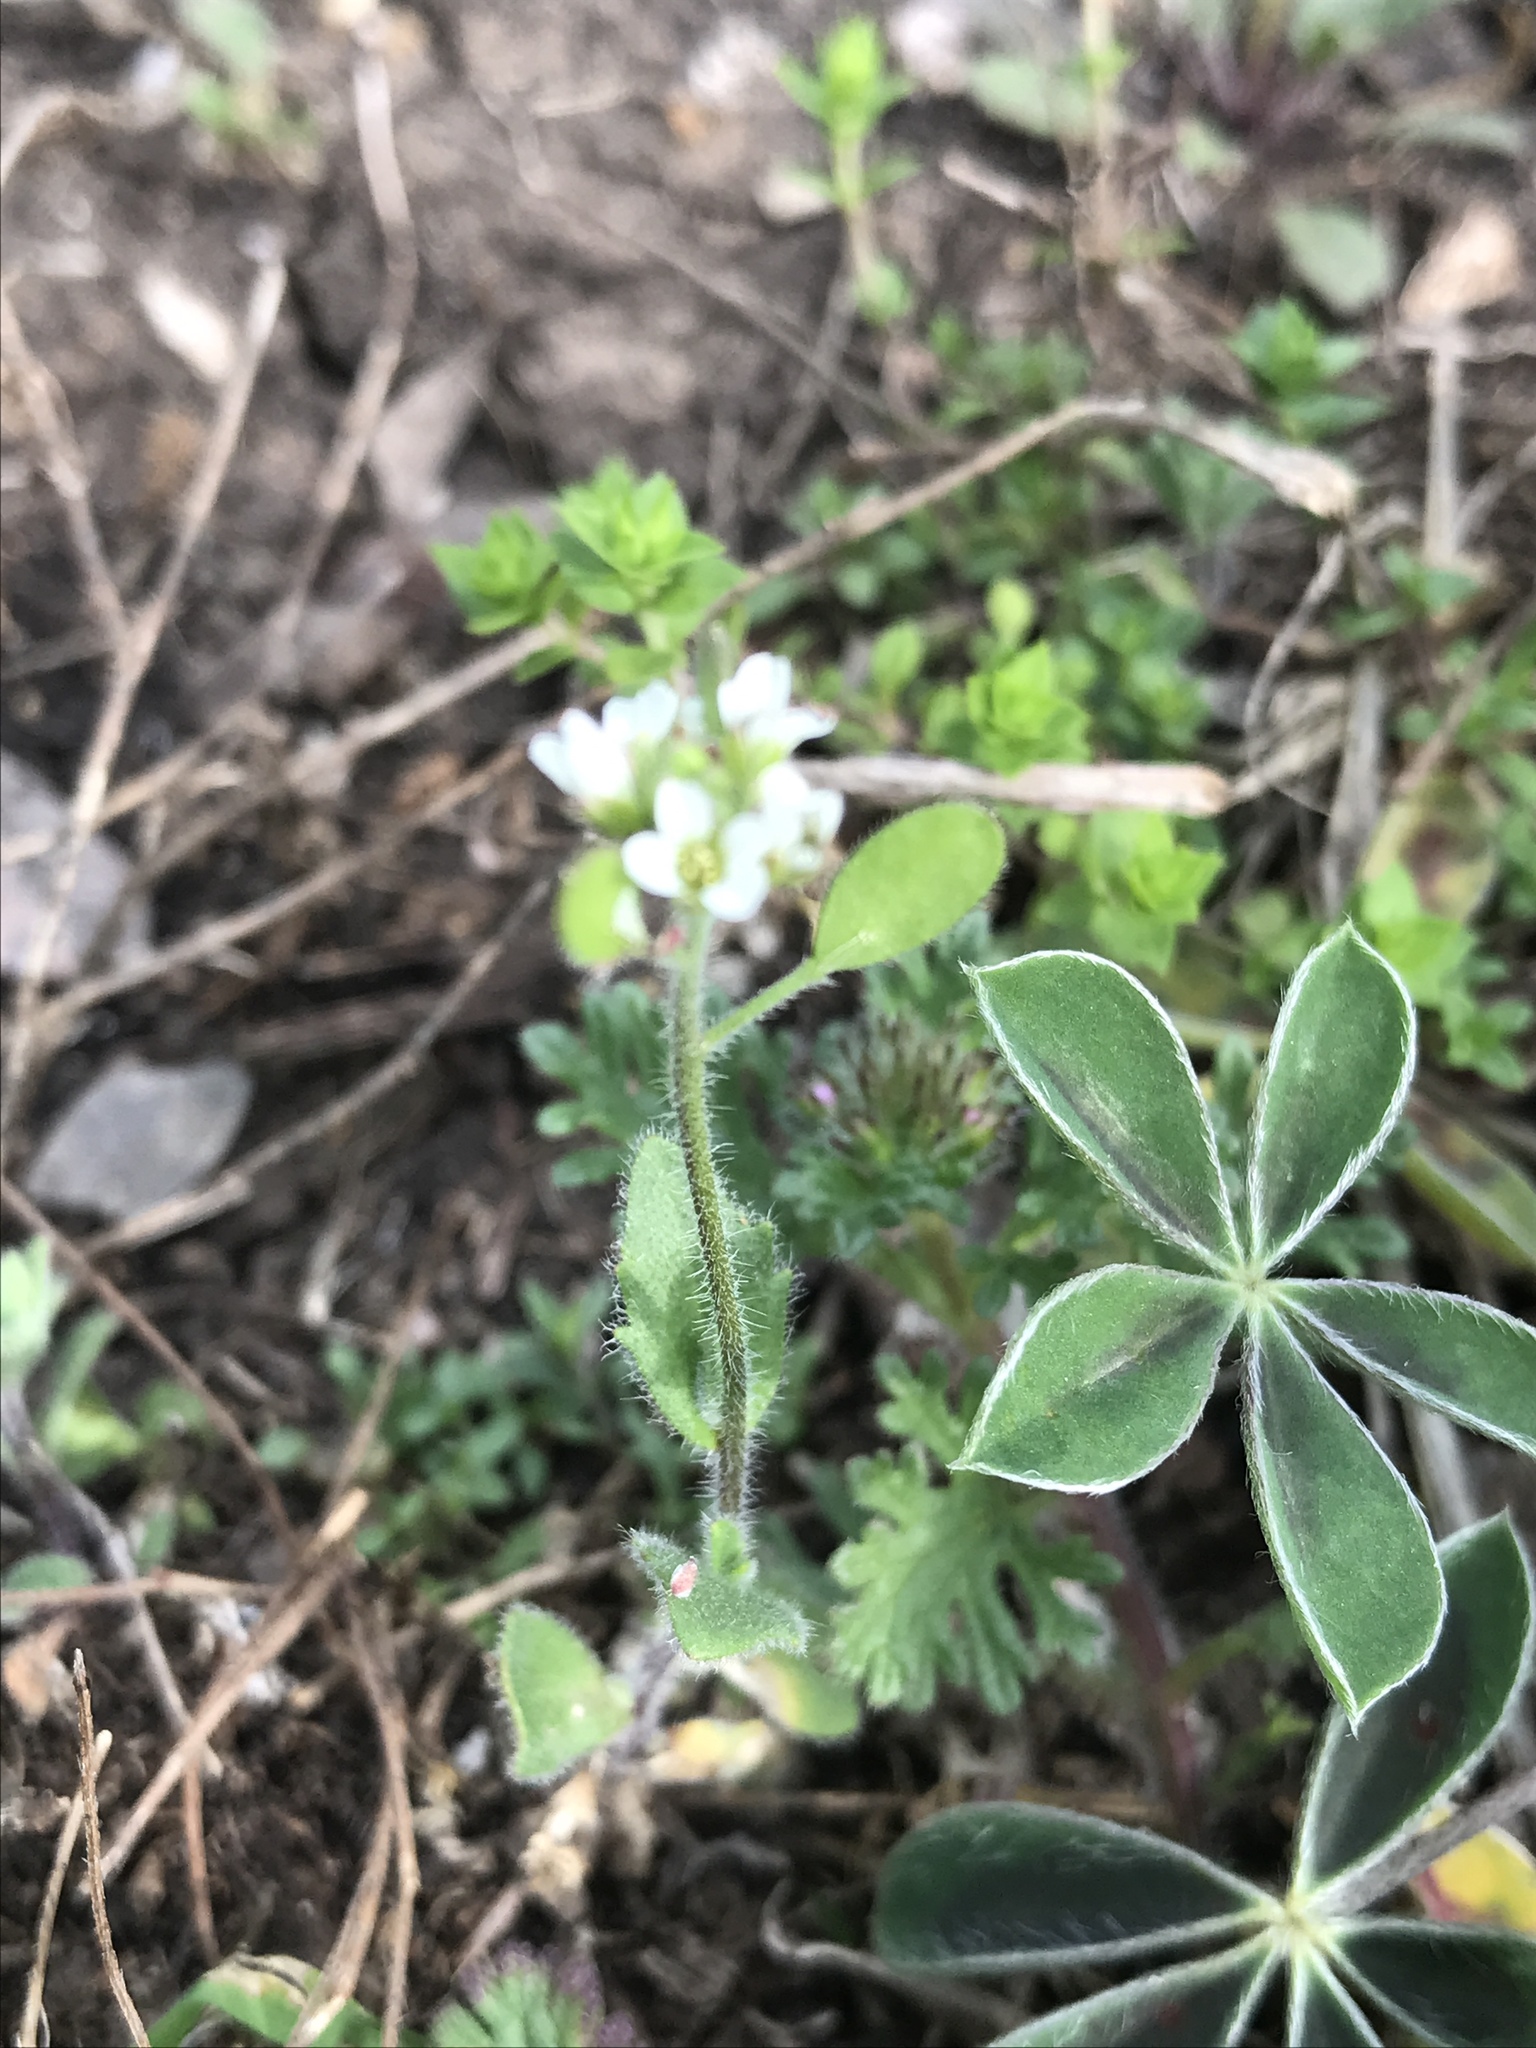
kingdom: Plantae
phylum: Tracheophyta
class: Magnoliopsida
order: Brassicales
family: Brassicaceae
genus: Tomostima
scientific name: Tomostima platycarpa
